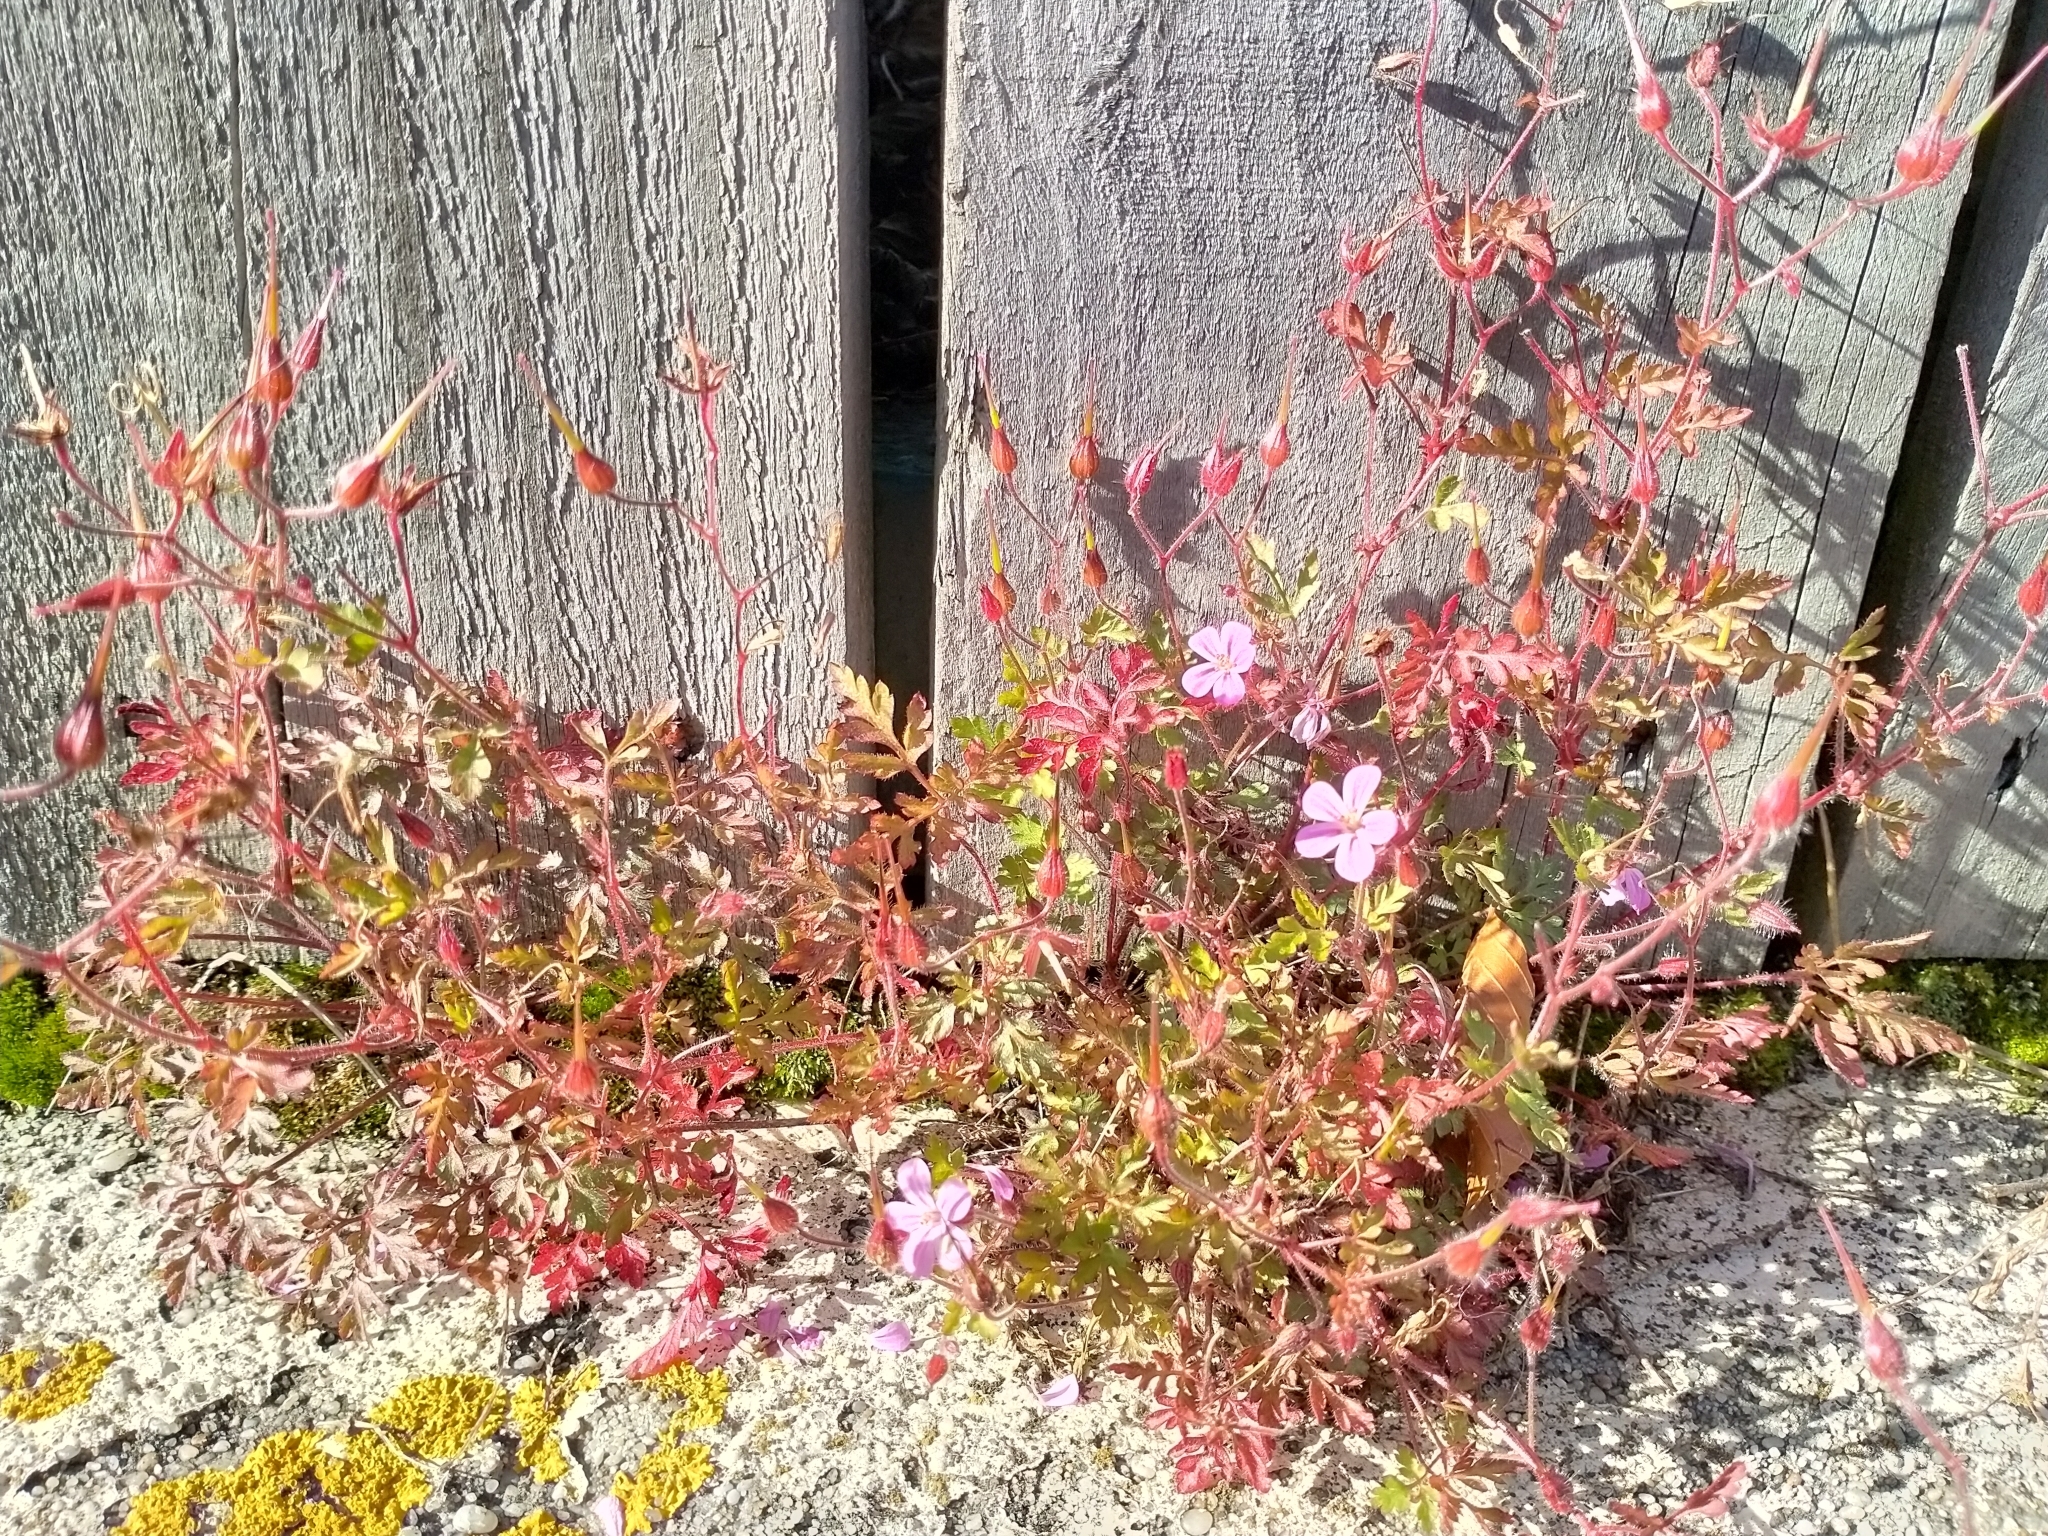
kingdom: Plantae
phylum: Tracheophyta
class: Magnoliopsida
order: Geraniales
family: Geraniaceae
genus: Geranium
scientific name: Geranium robertianum
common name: Herb-robert
